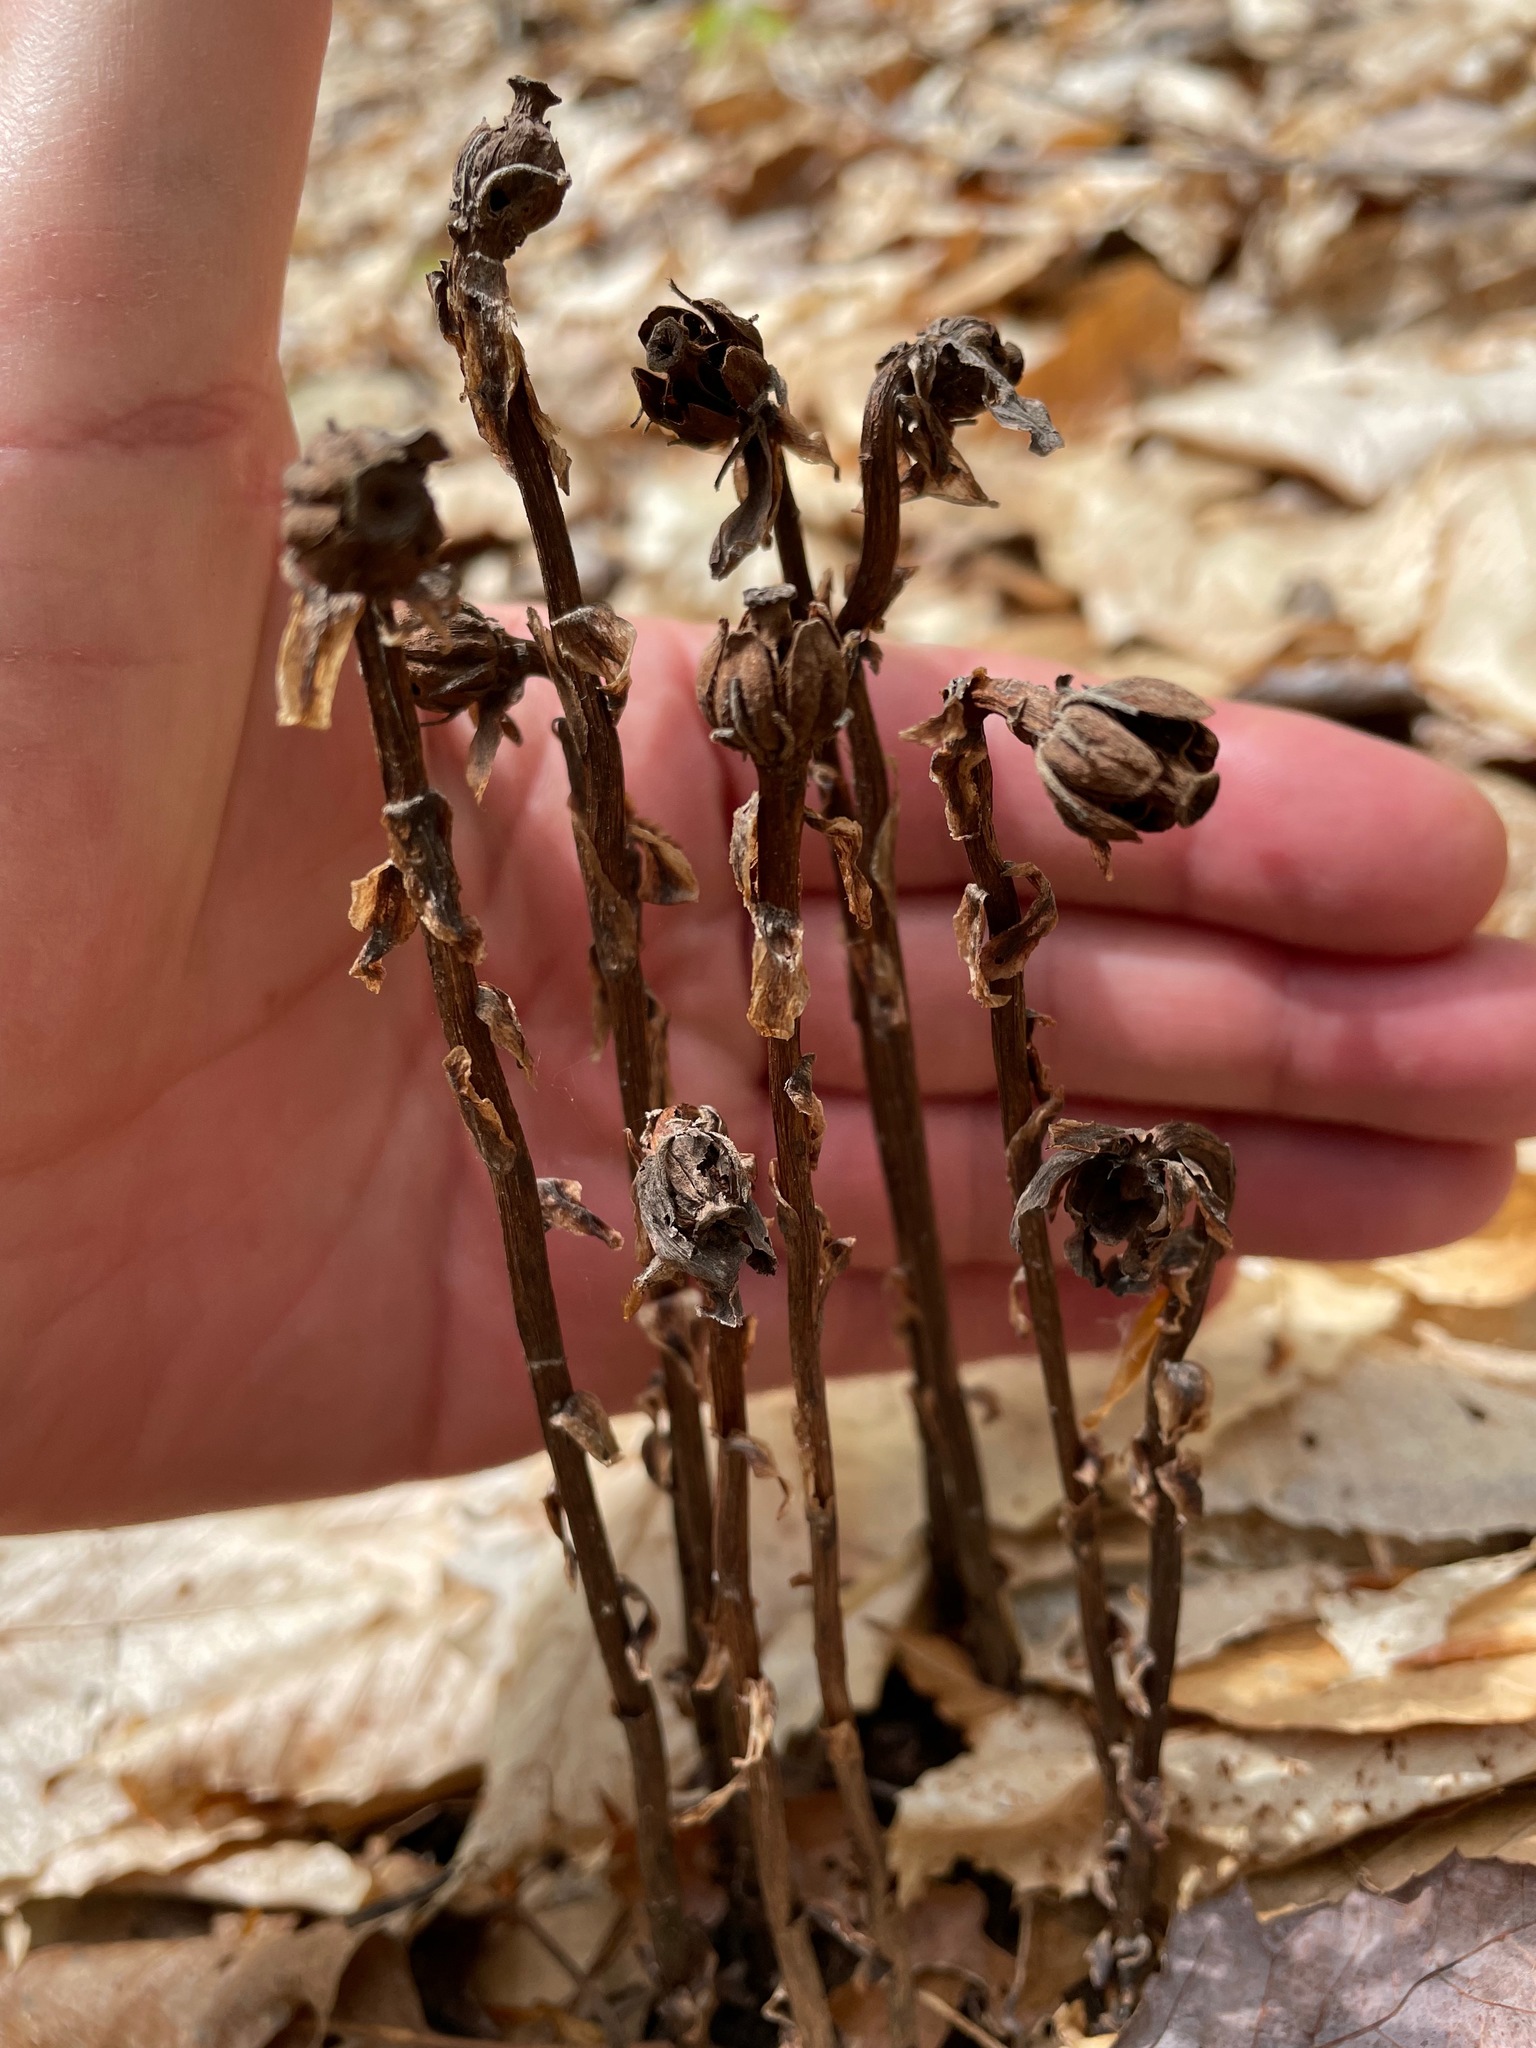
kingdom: Plantae
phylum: Tracheophyta
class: Magnoliopsida
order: Ericales
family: Ericaceae
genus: Monotropa
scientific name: Monotropa uniflora
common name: Convulsion root
